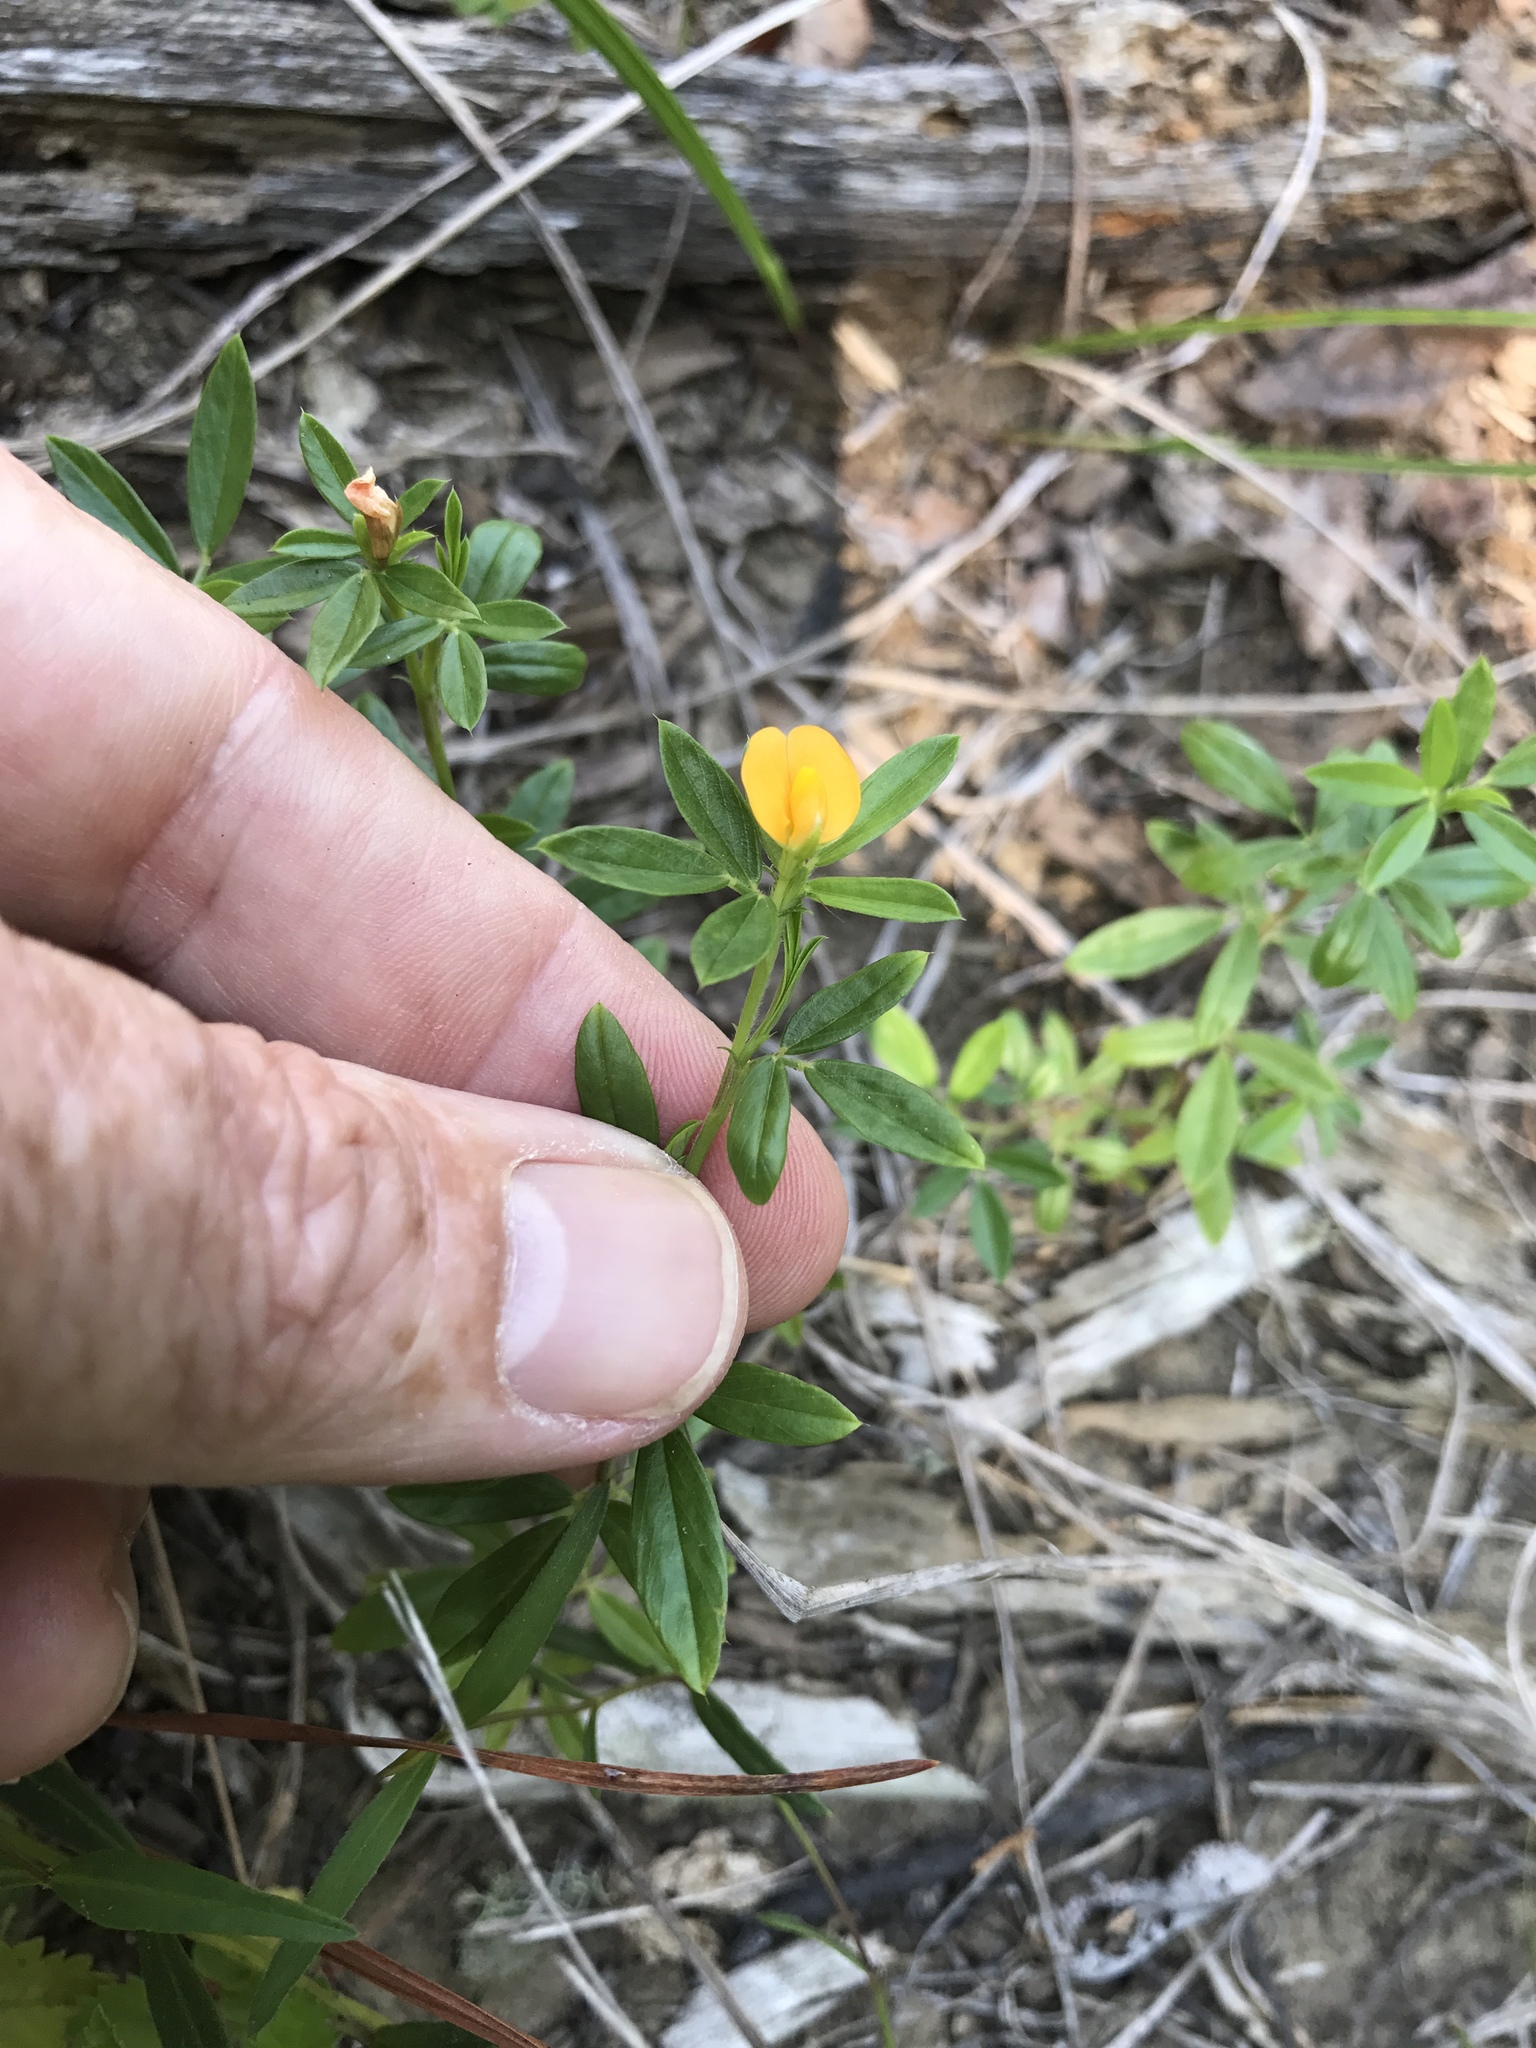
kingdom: Plantae
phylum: Tracheophyta
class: Magnoliopsida
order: Fabales
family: Fabaceae
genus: Stylosanthes
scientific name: Stylosanthes biflora
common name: Two-flower pencil-flower
